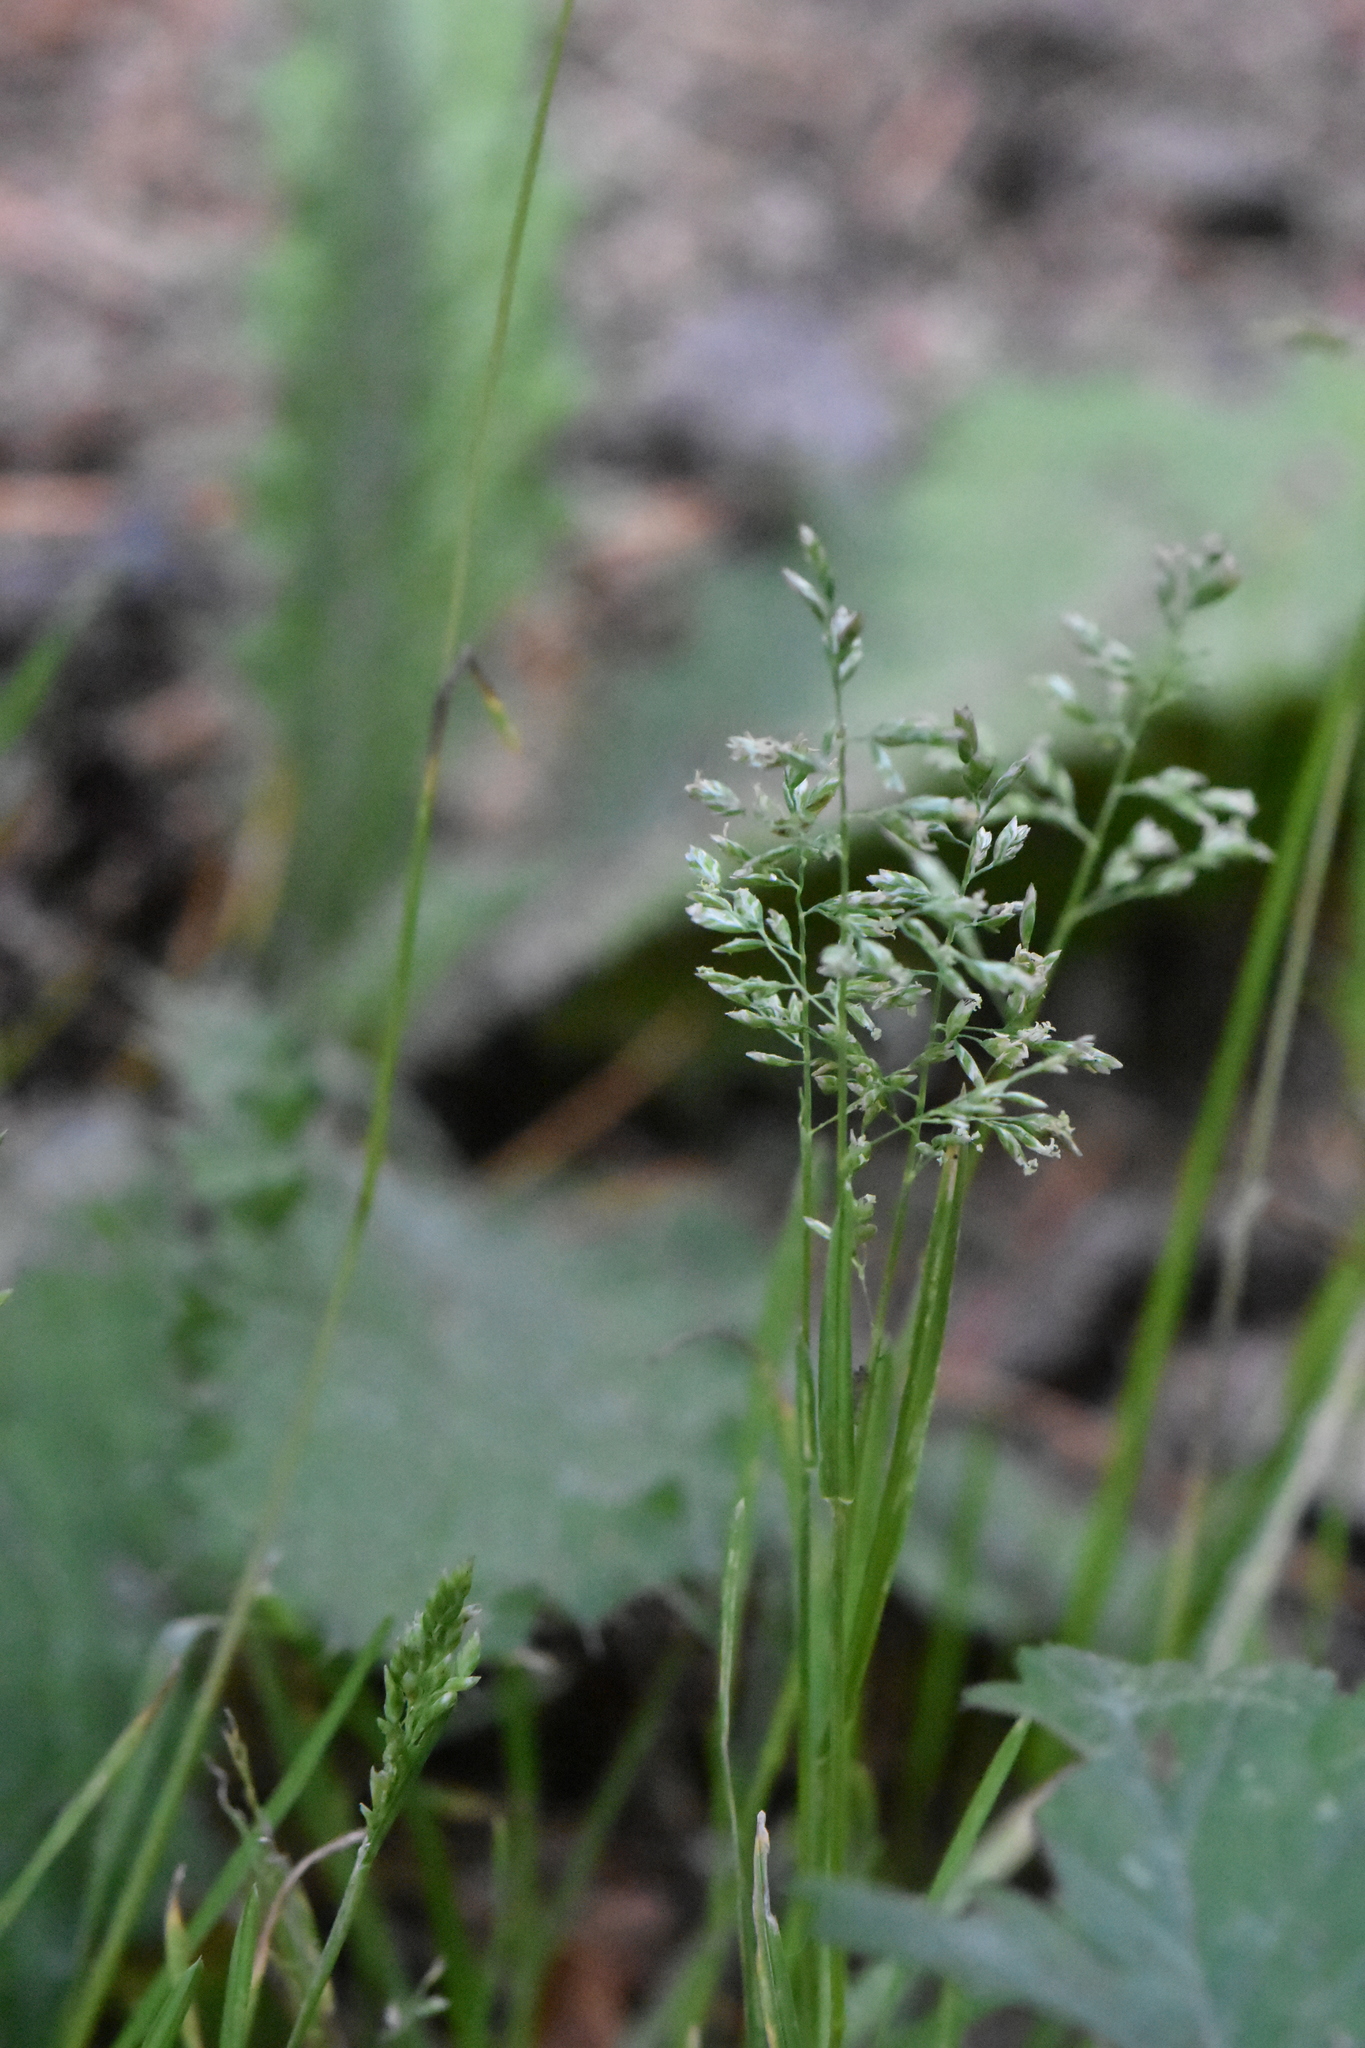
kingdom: Plantae
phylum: Tracheophyta
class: Liliopsida
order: Poales
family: Poaceae
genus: Poa
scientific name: Poa annua
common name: Annual bluegrass
